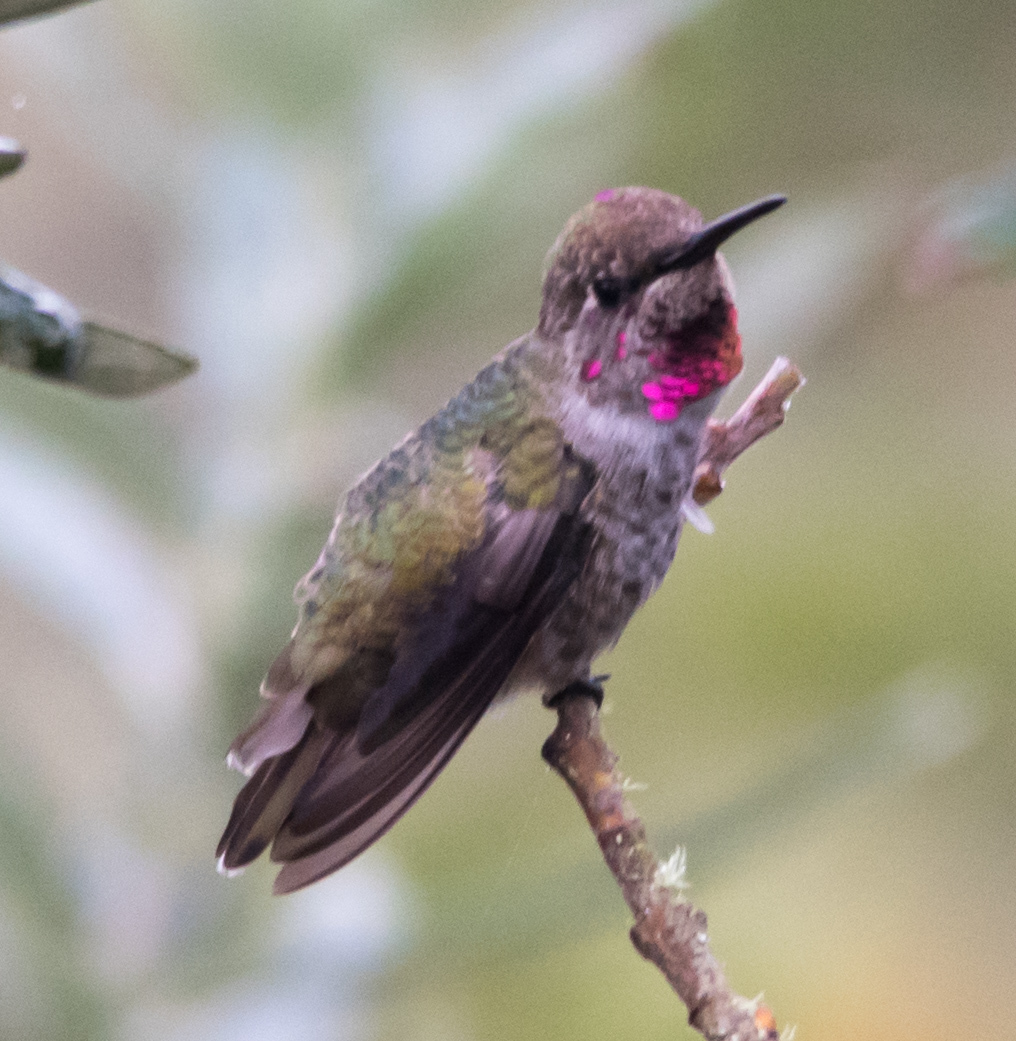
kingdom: Animalia
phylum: Chordata
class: Aves
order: Apodiformes
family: Trochilidae
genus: Calypte
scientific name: Calypte anna
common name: Anna's hummingbird
